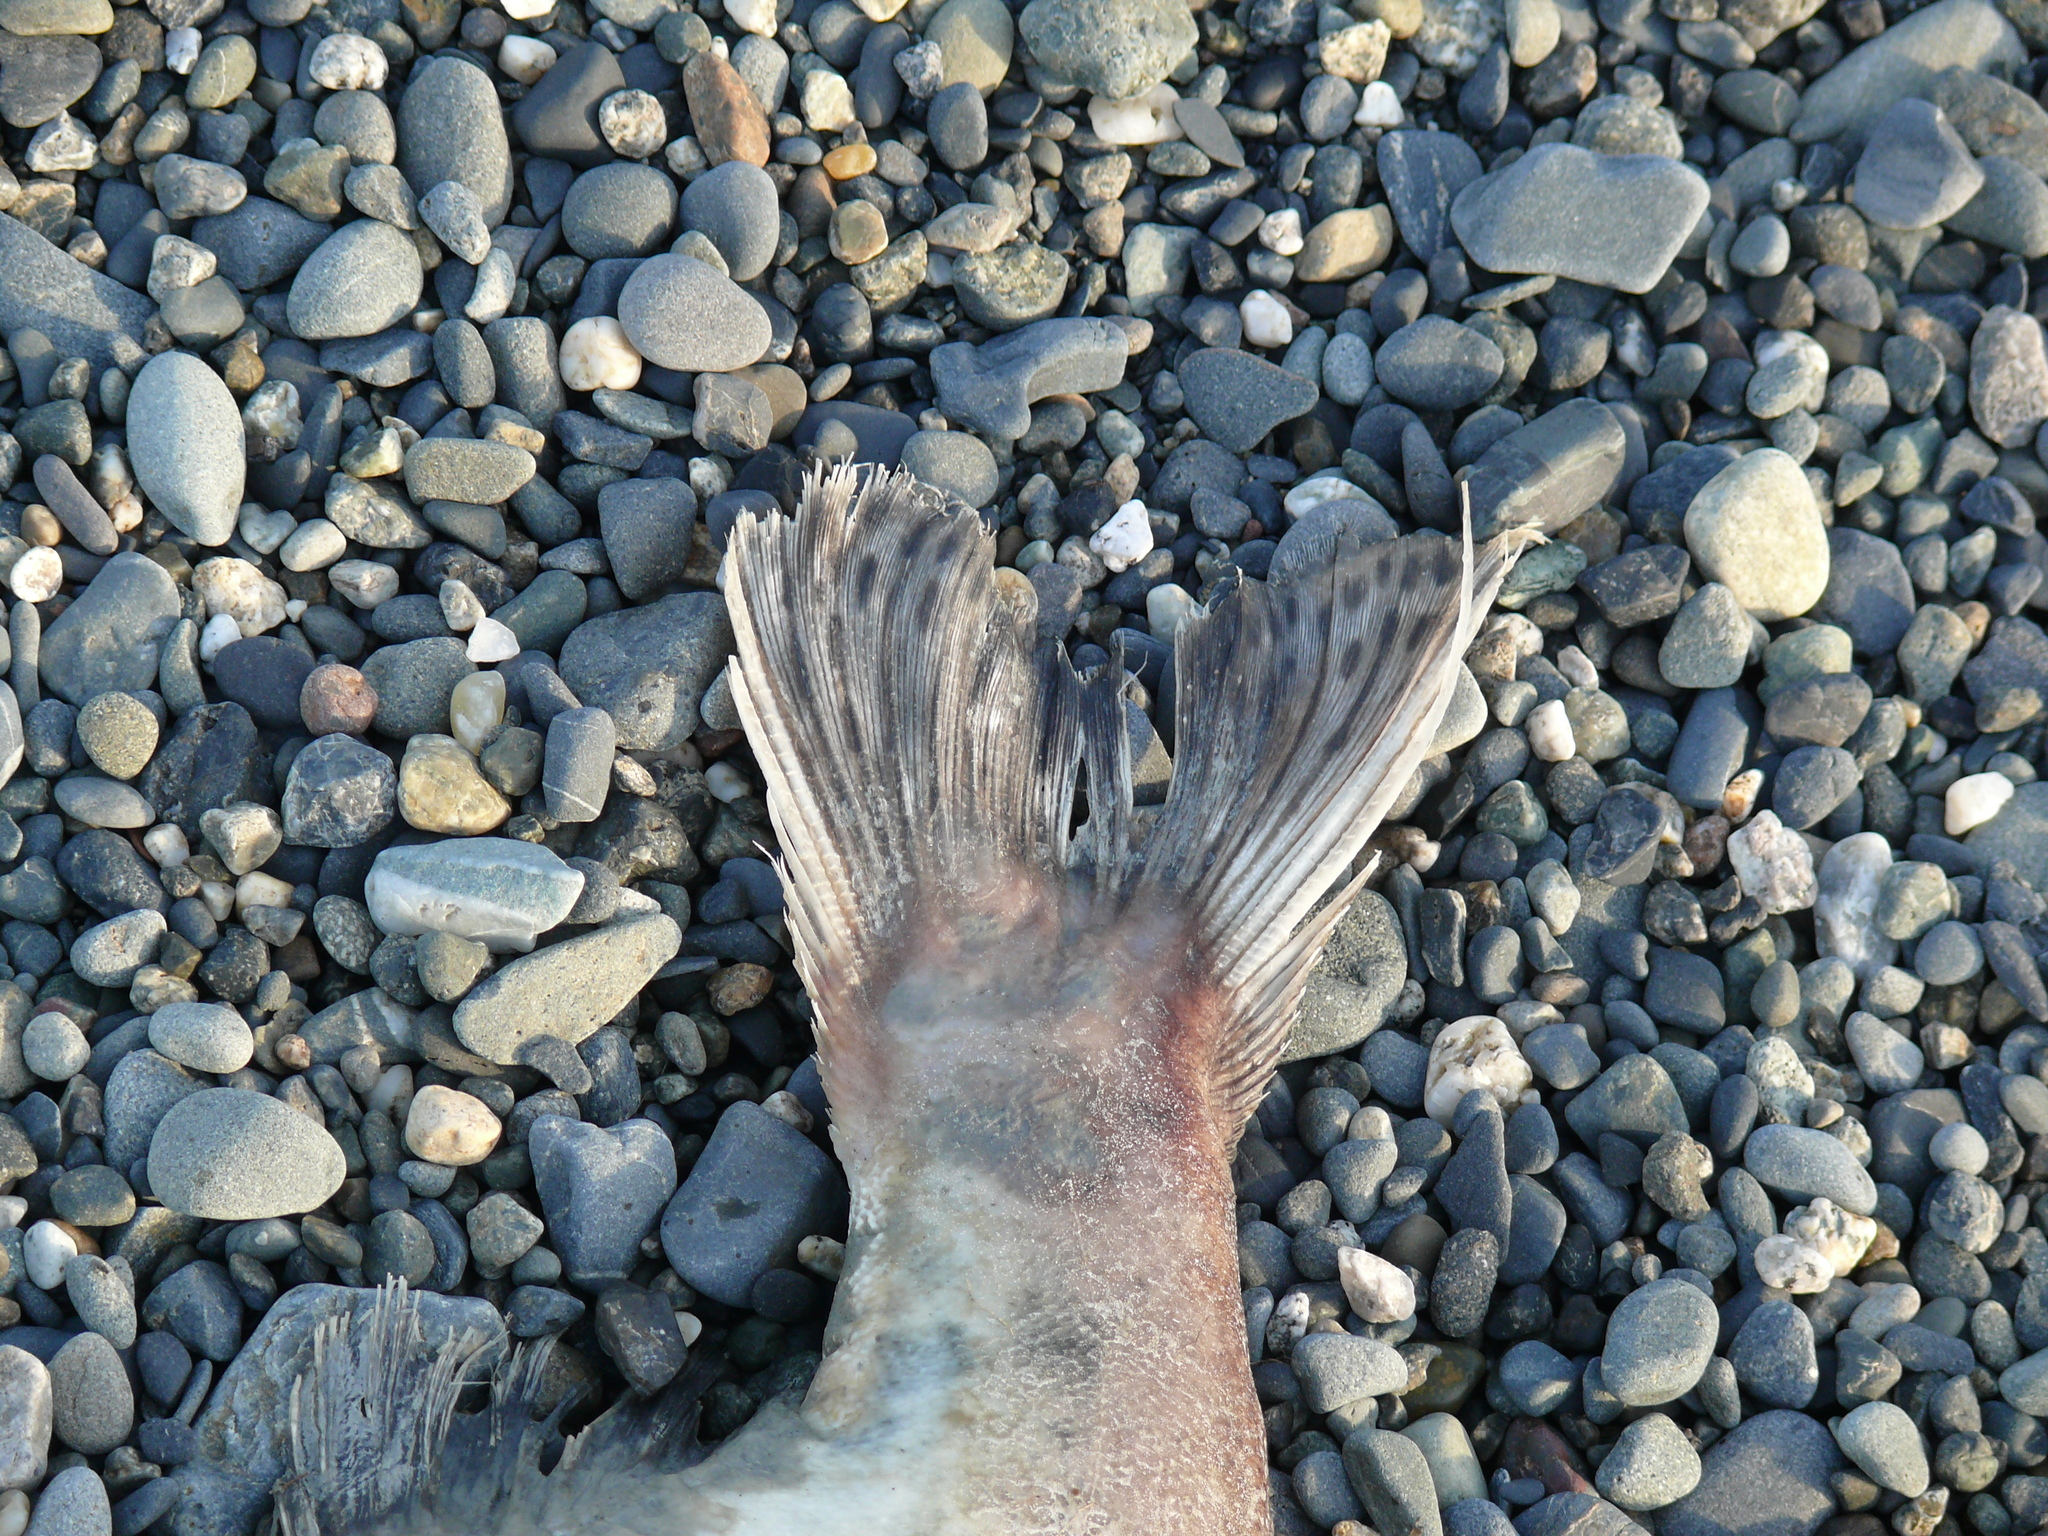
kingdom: Animalia
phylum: Chordata
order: Salmoniformes
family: Salmonidae
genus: Oncorhynchus
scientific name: Oncorhynchus gorbuscha
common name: Humpback salmon
